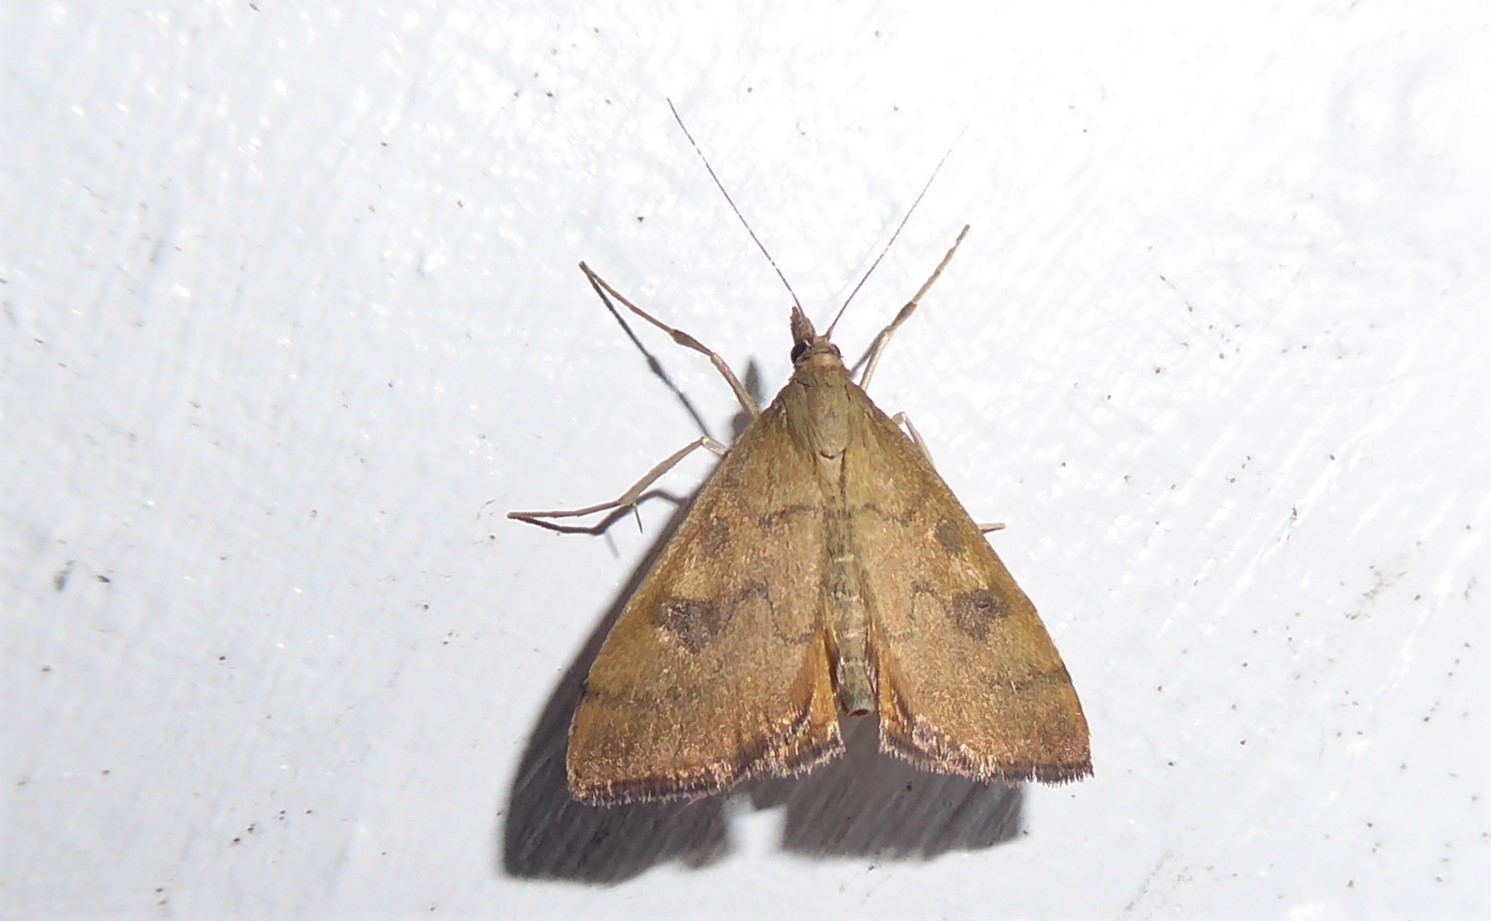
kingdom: Animalia
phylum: Arthropoda
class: Insecta
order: Lepidoptera
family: Crambidae
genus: Udea
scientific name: Udea Mnesictena flavidalis
